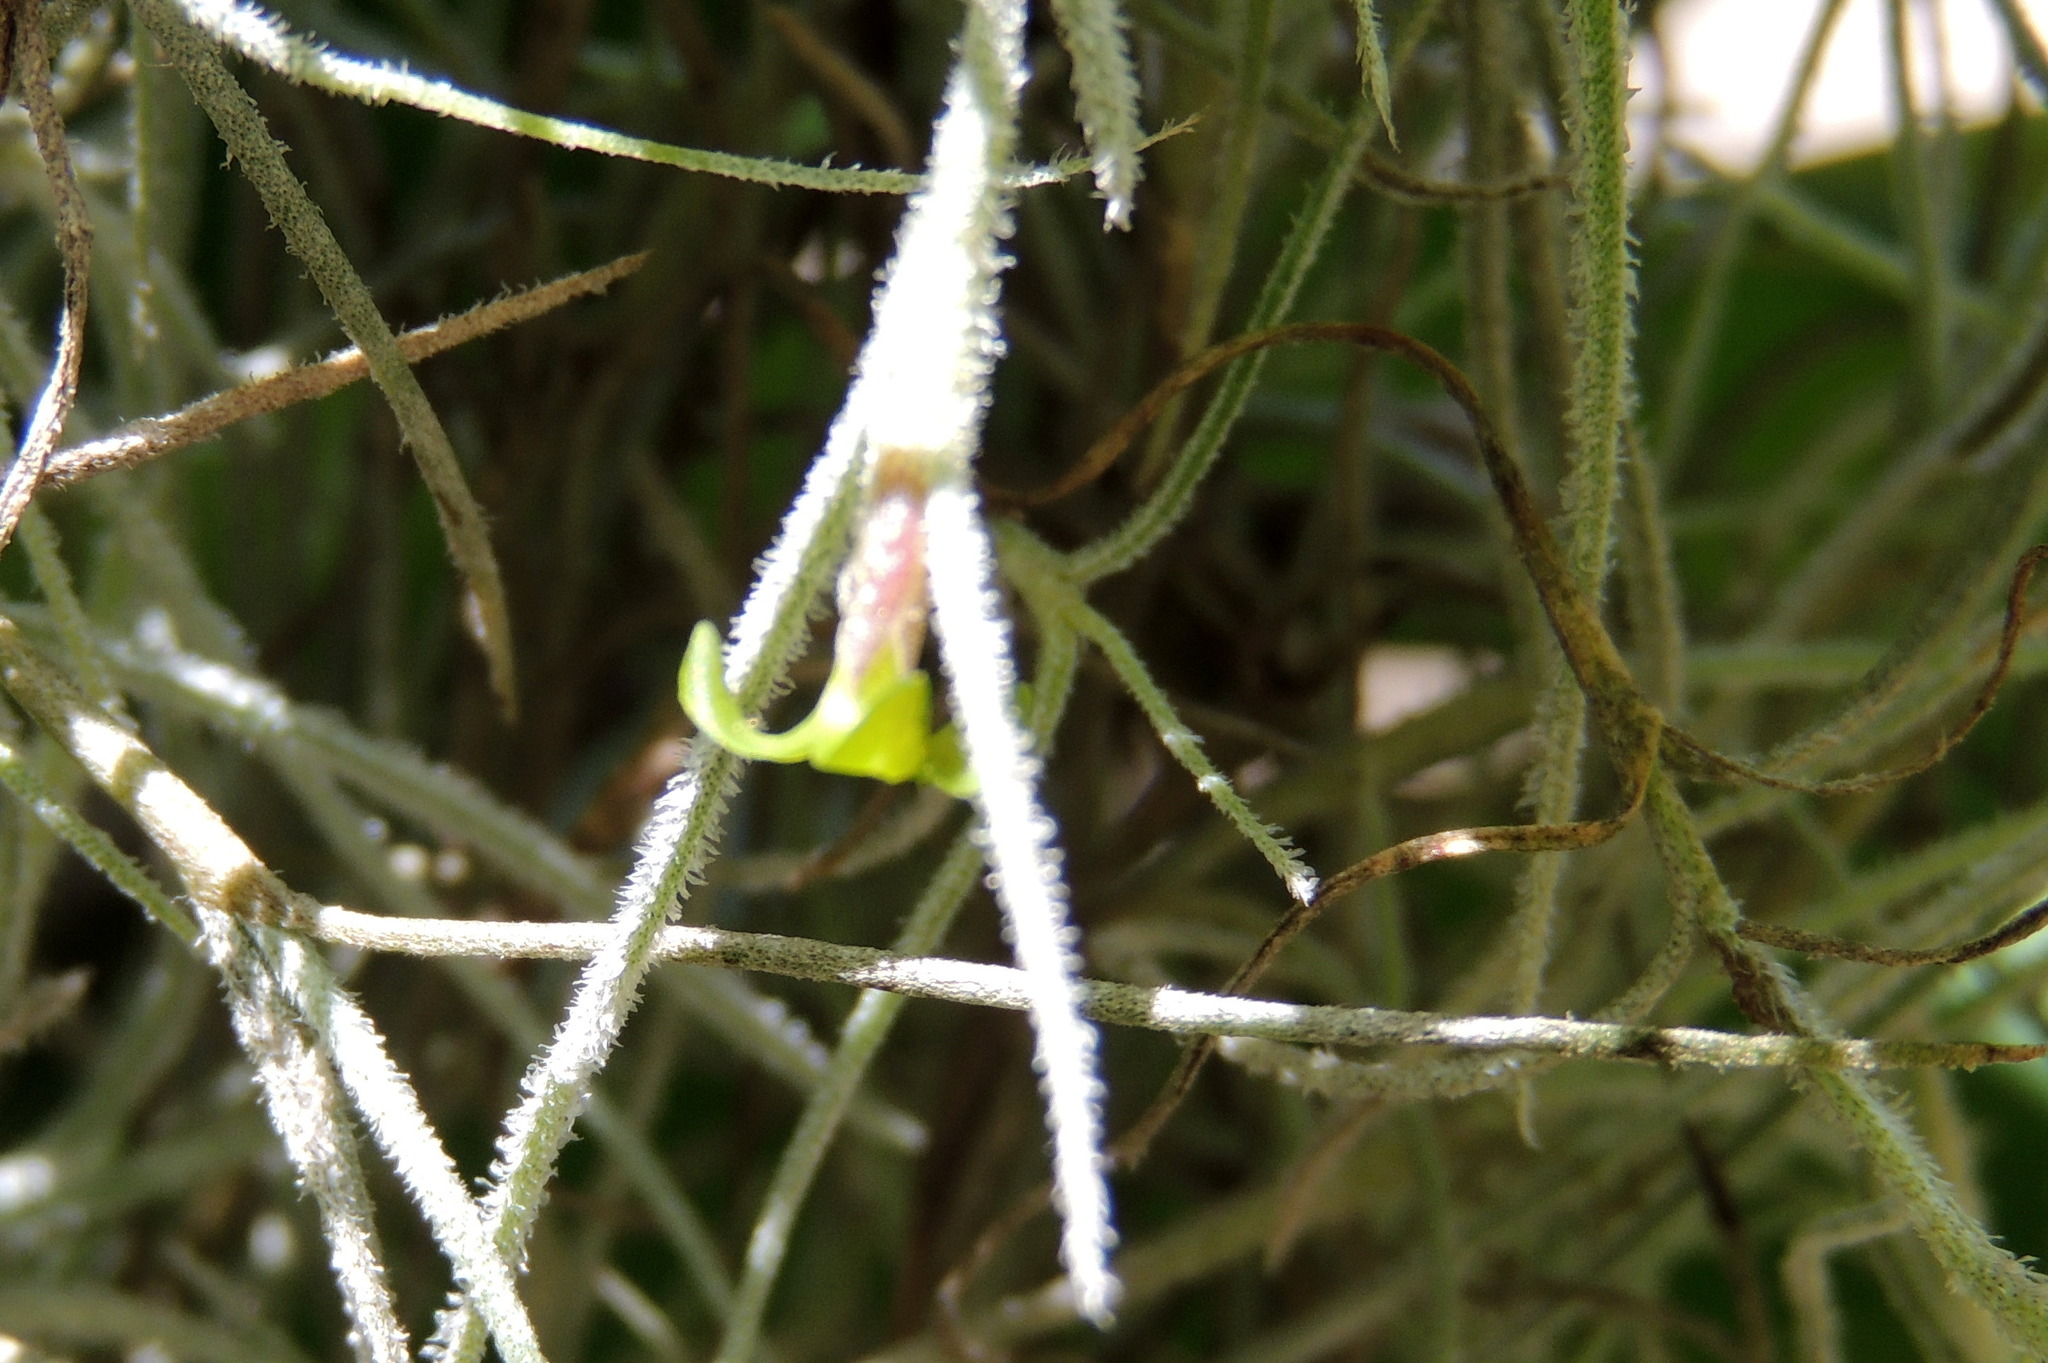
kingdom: Plantae
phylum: Tracheophyta
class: Liliopsida
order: Poales
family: Bromeliaceae
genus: Tillandsia
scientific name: Tillandsia usneoides
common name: Spanish moss
